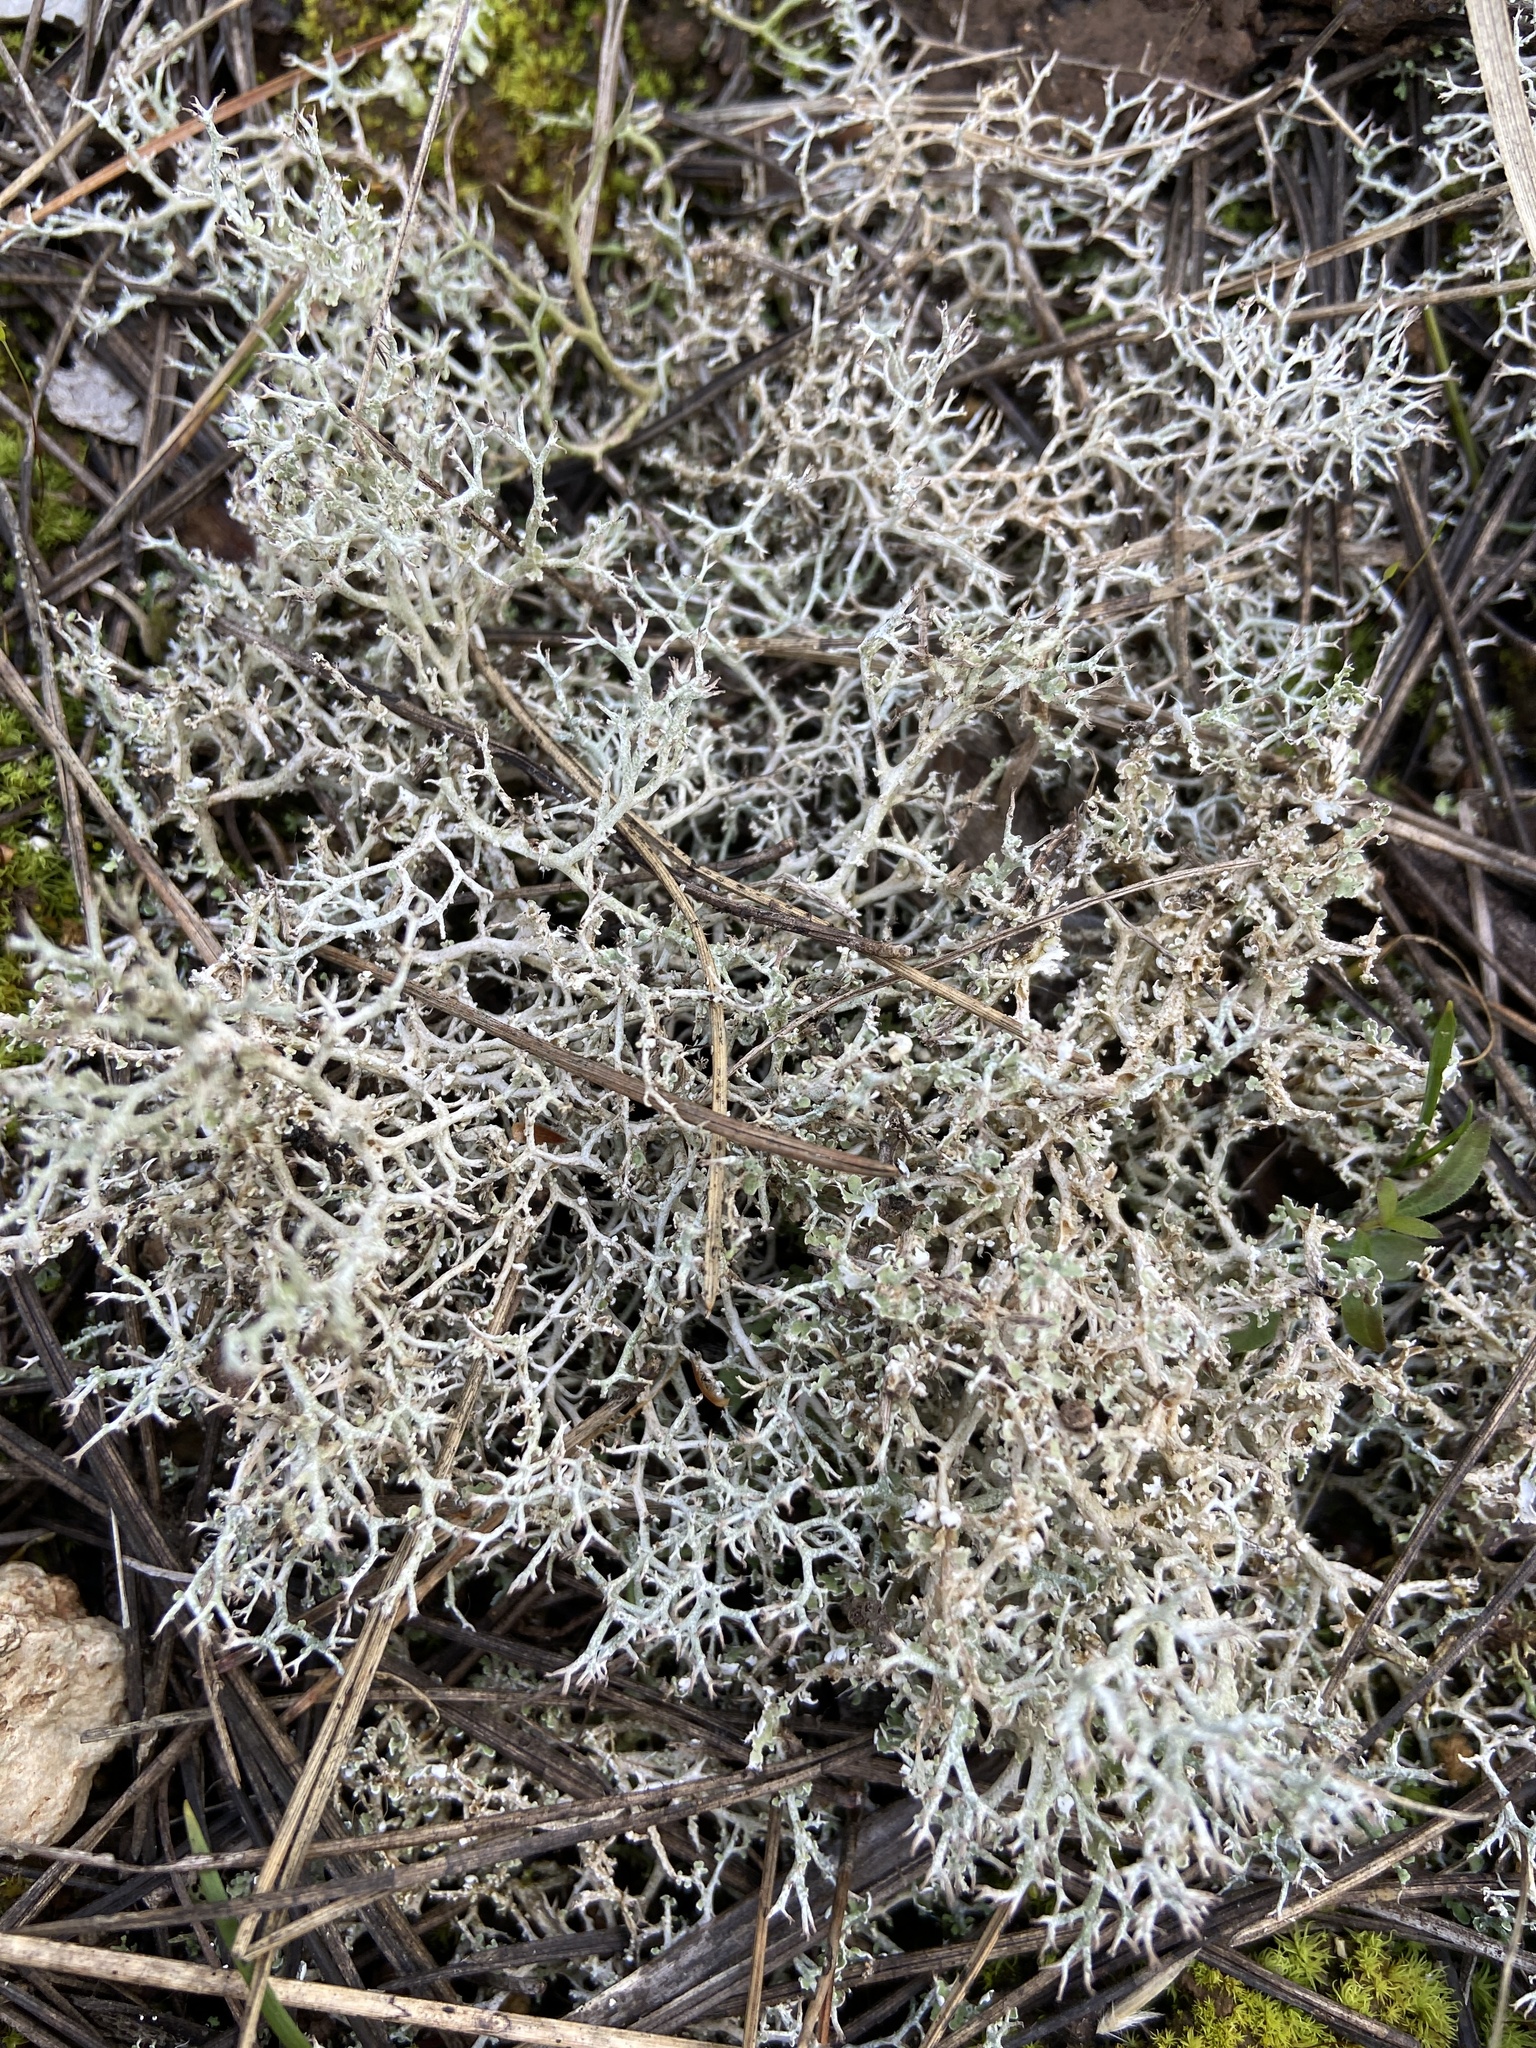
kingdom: Fungi
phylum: Ascomycota
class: Lecanoromycetes
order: Lecanorales
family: Cladoniaceae
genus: Cladonia
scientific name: Cladonia rangiformis
